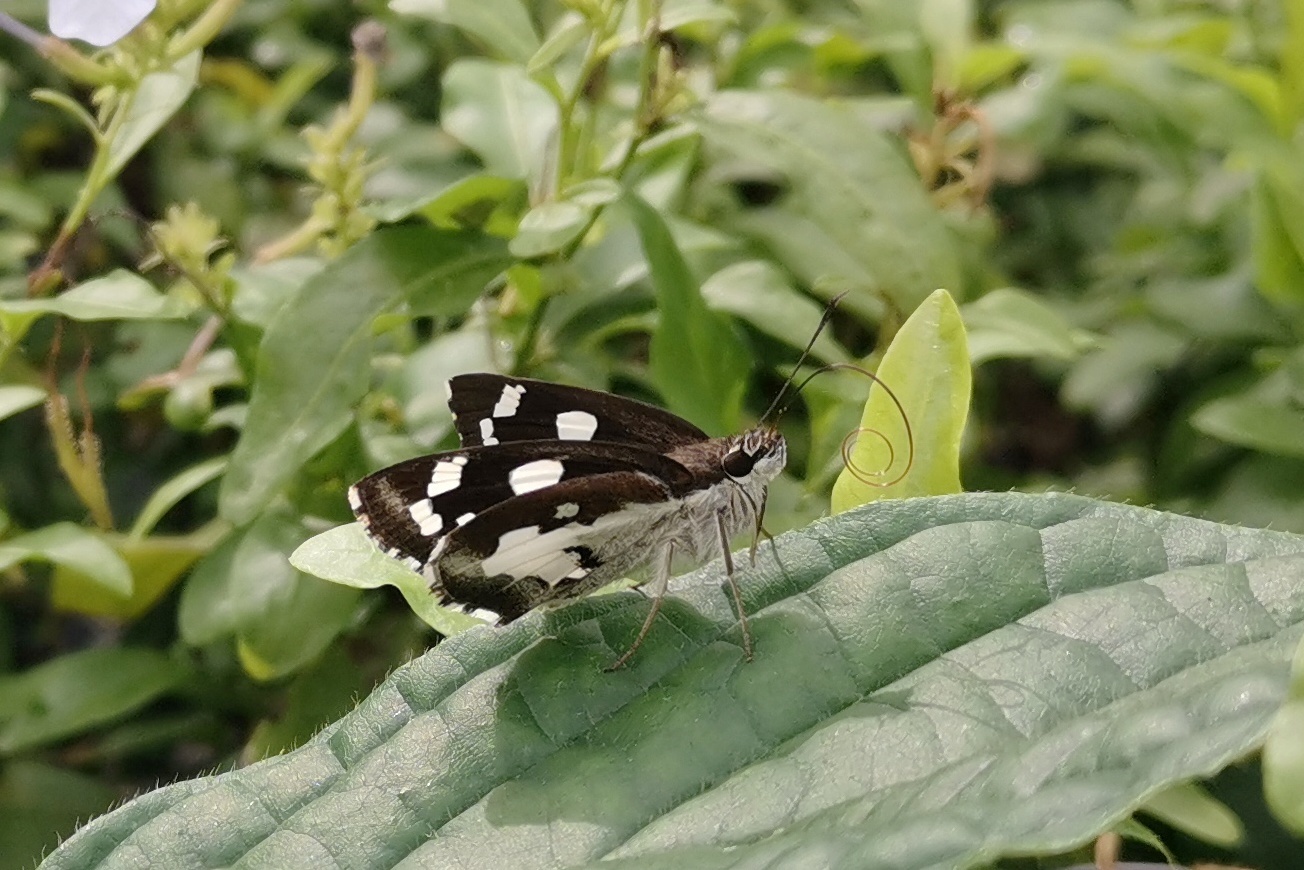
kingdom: Animalia
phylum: Arthropoda
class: Insecta
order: Lepidoptera
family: Hesperiidae
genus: Udaspes
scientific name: Udaspes folus
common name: Grass demon
